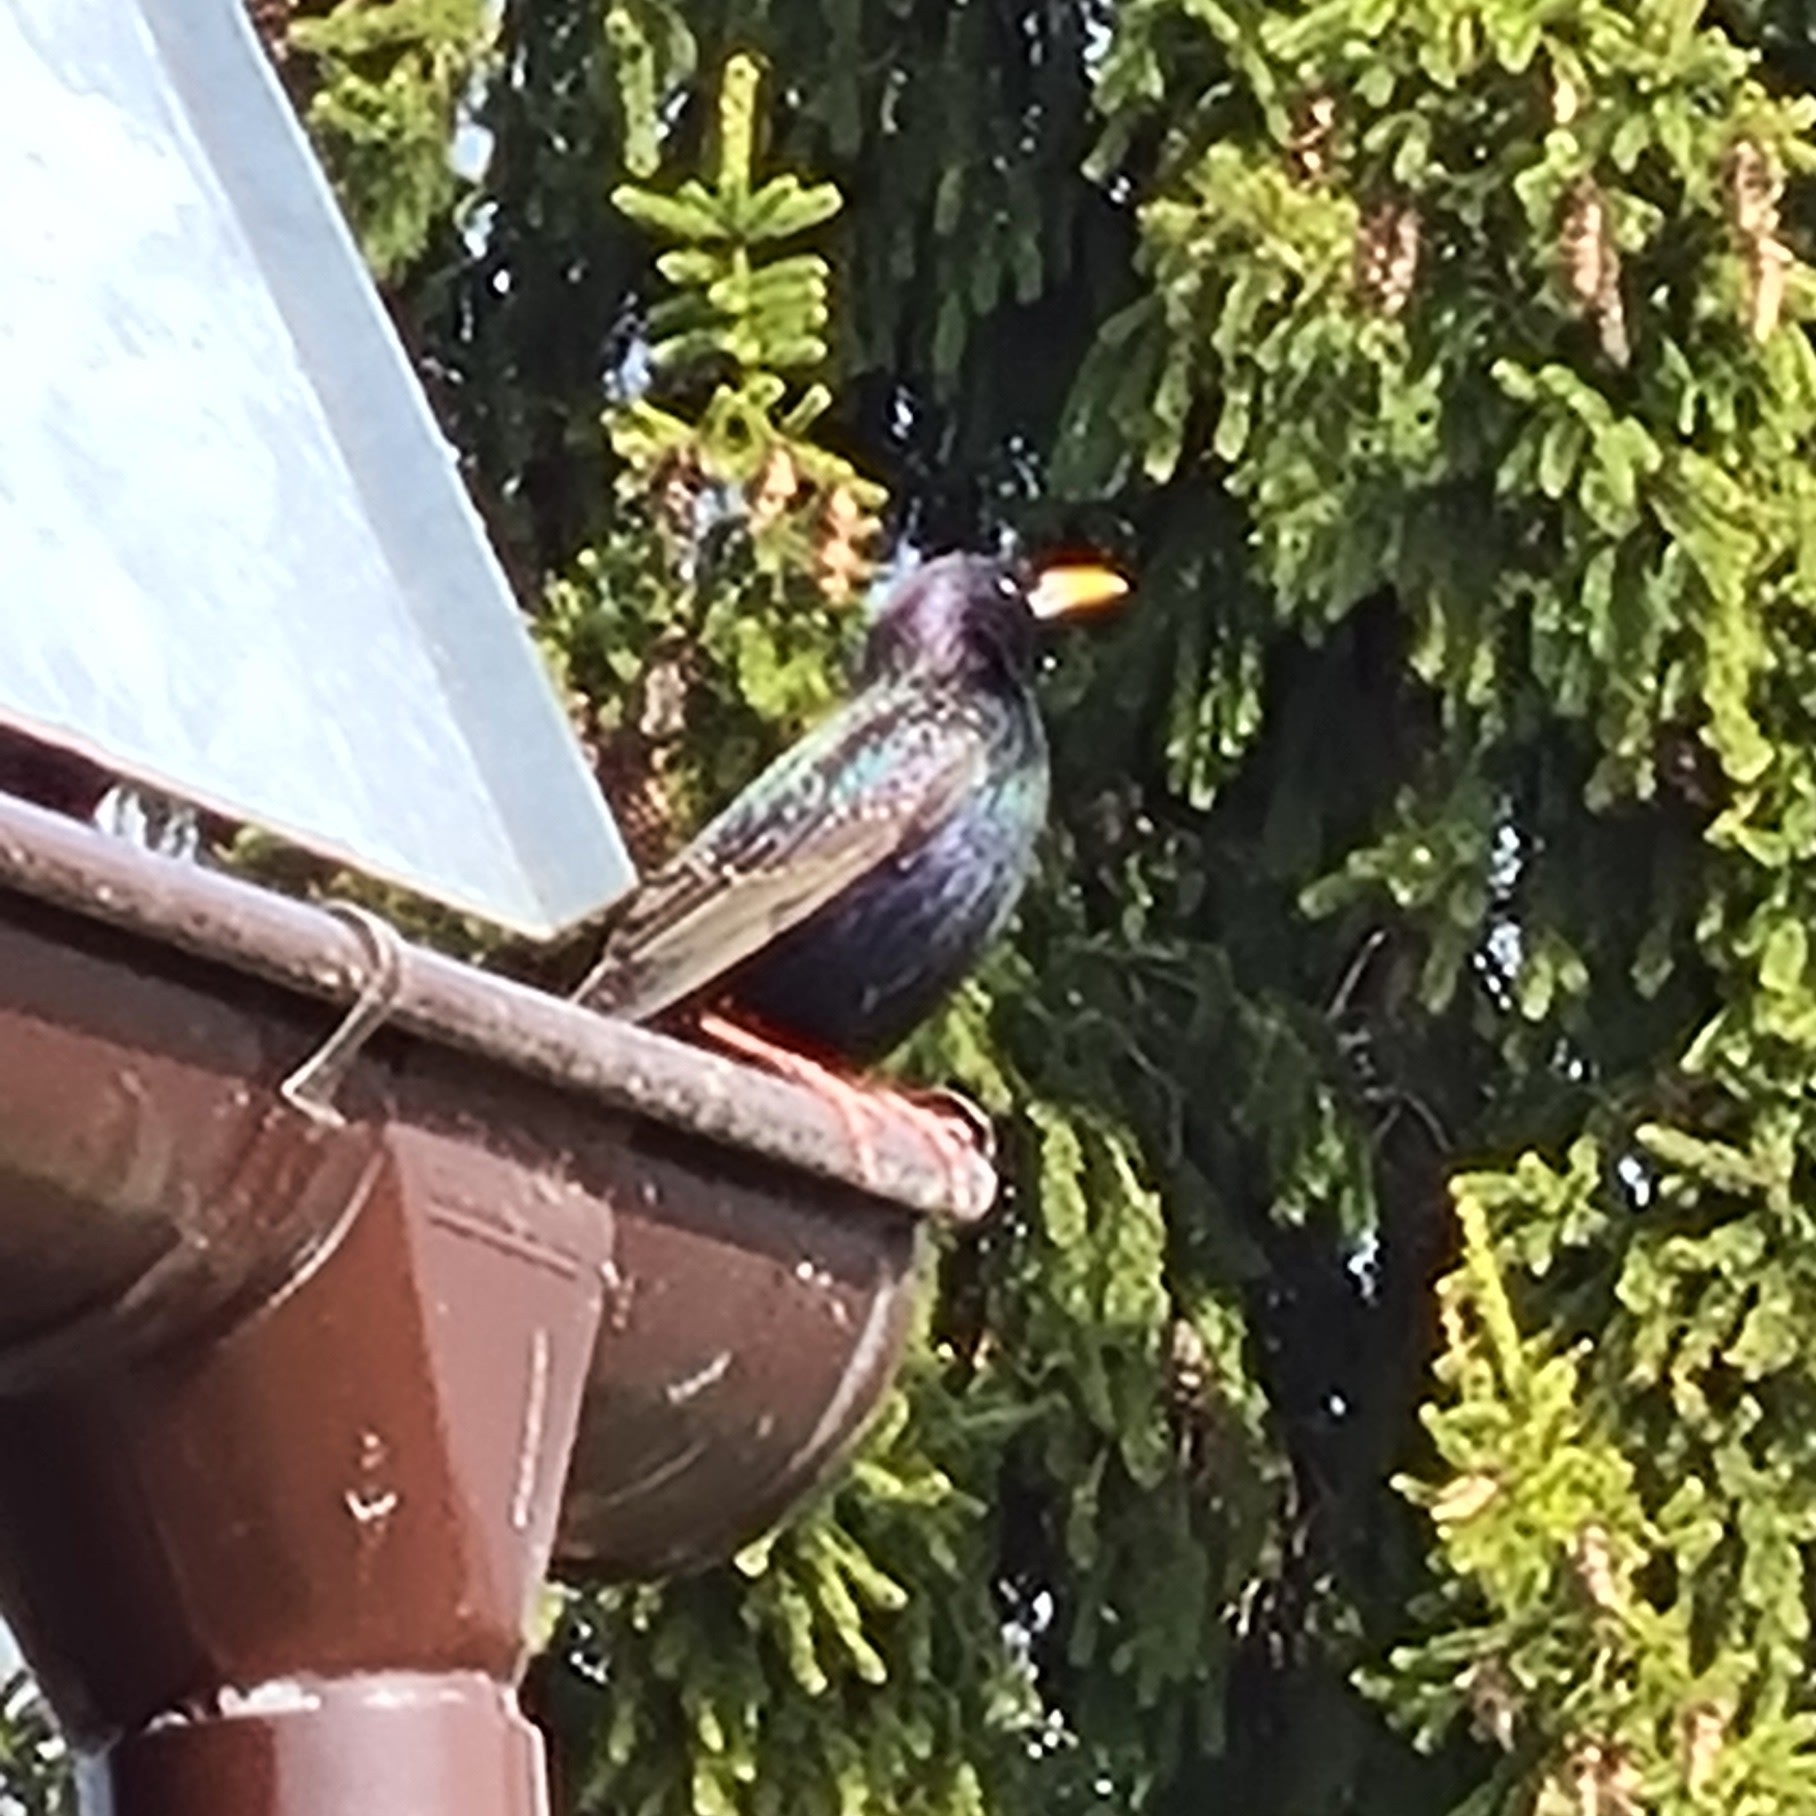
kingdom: Animalia
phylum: Chordata
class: Aves
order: Passeriformes
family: Sturnidae
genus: Sturnus
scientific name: Sturnus vulgaris
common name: Common starling
